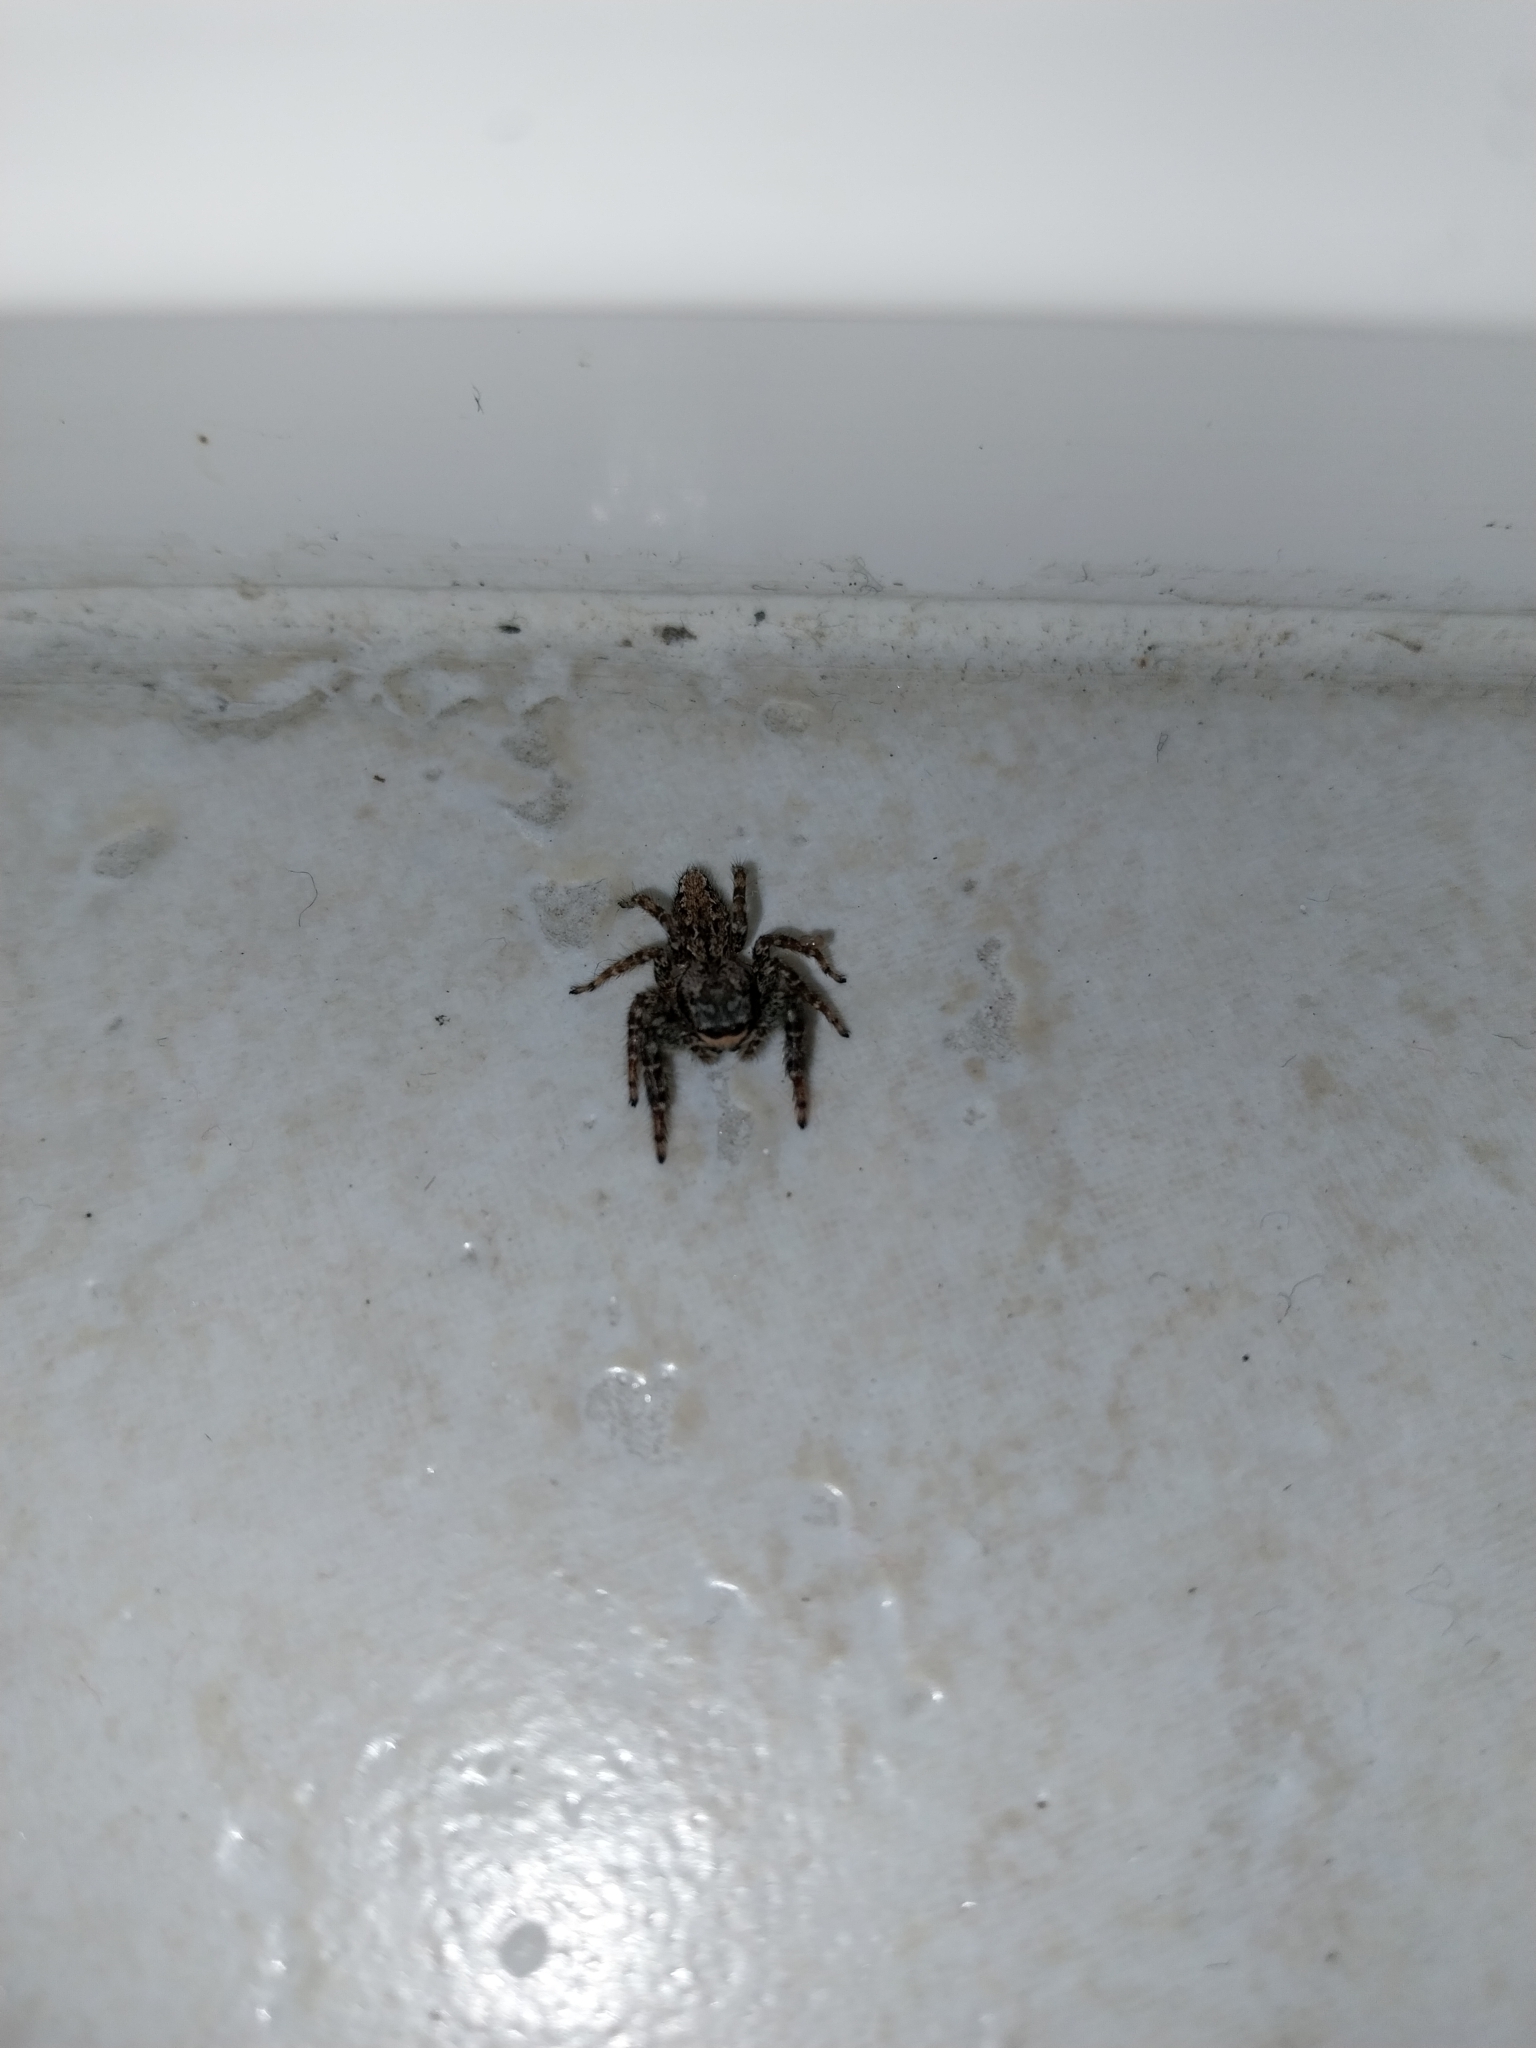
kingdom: Animalia
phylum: Arthropoda
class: Arachnida
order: Araneae
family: Salticidae
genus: Marpissa
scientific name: Marpissa muscosa
